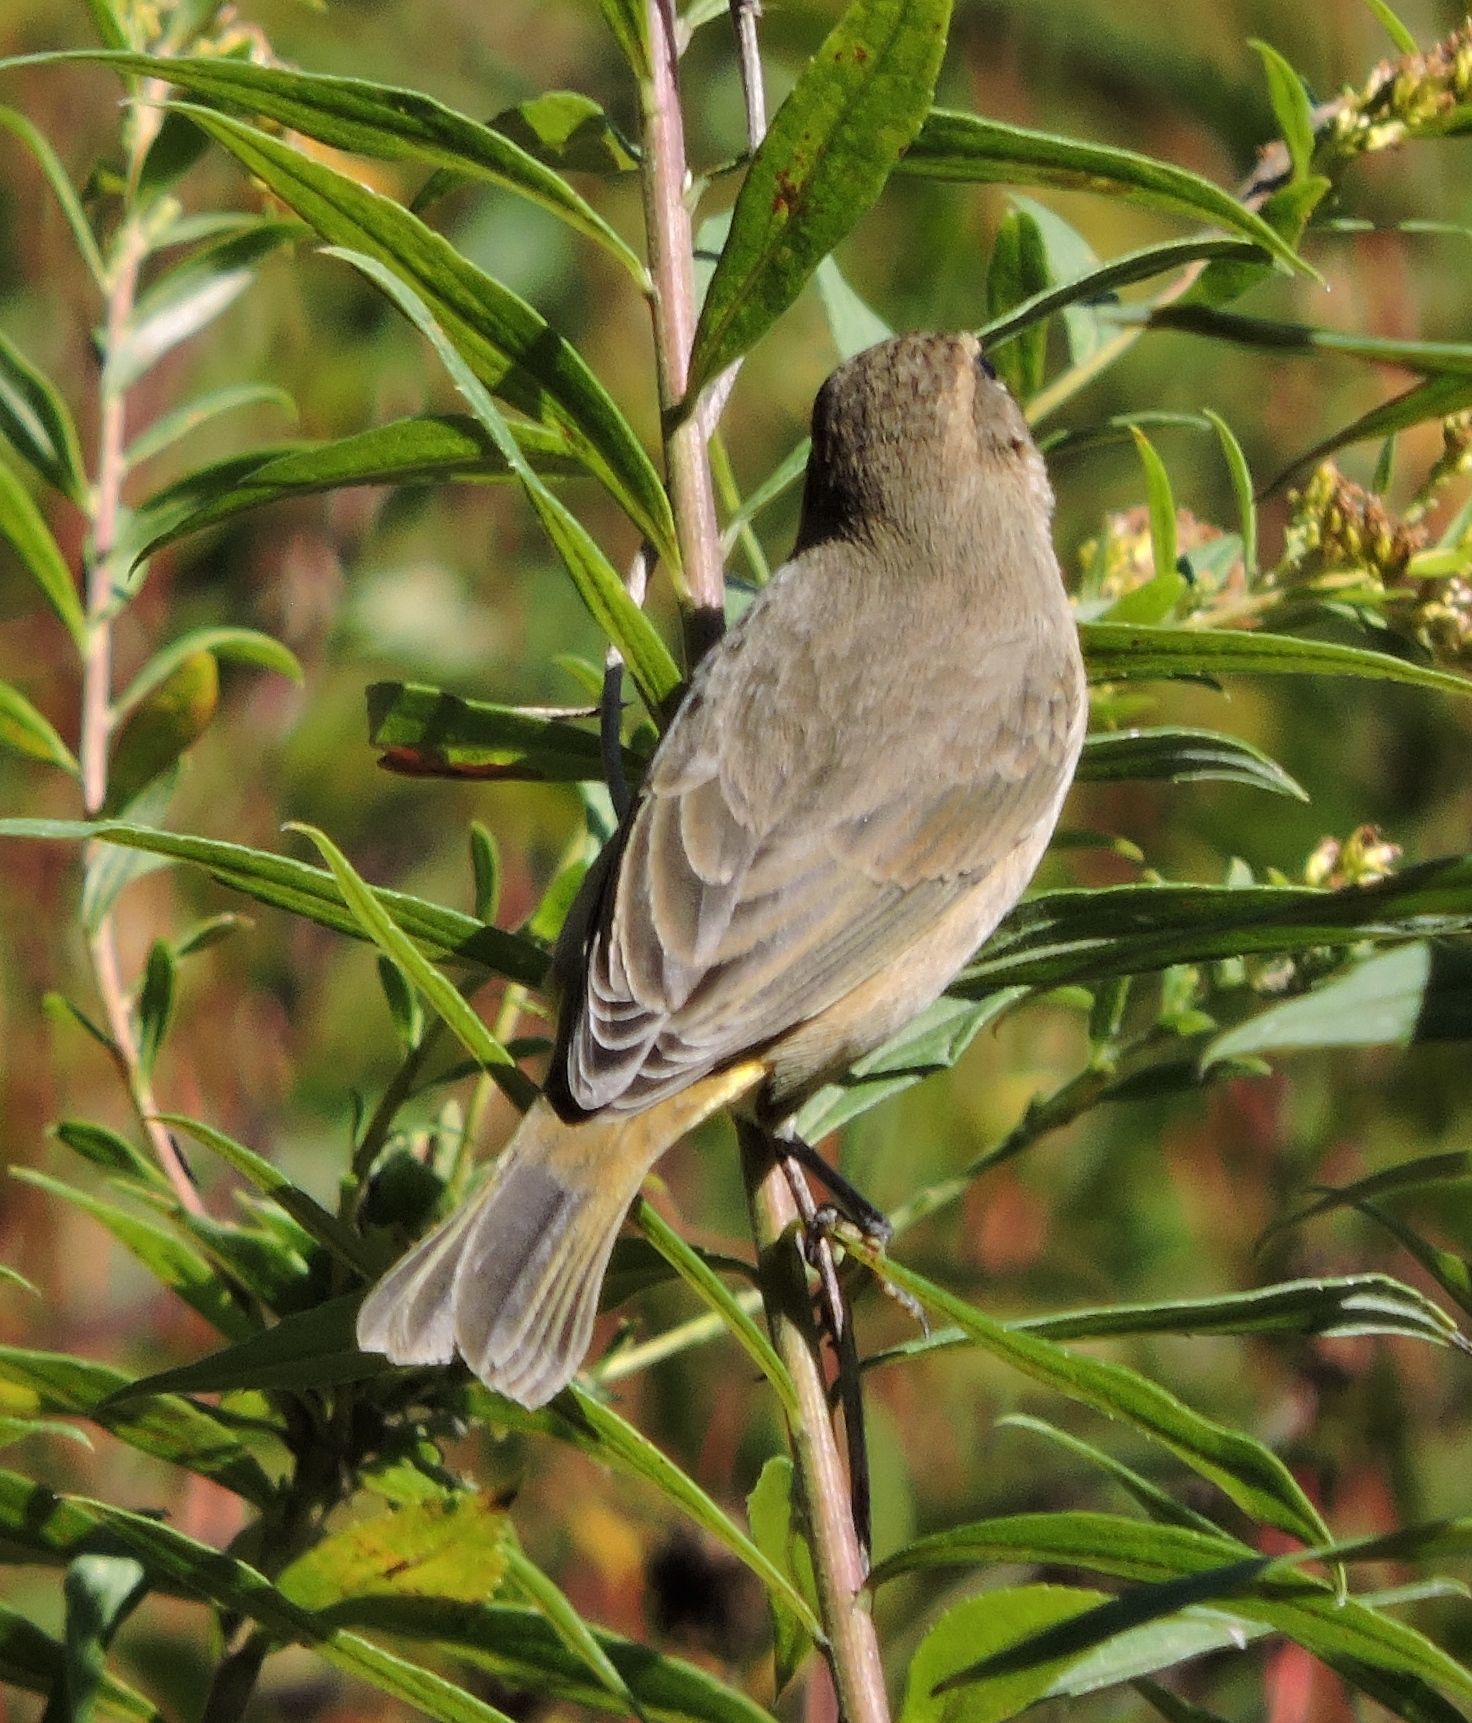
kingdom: Animalia
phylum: Chordata
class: Aves
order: Passeriformes
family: Parulidae
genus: Setophaga
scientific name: Setophaga palmarum
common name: Palm warbler
